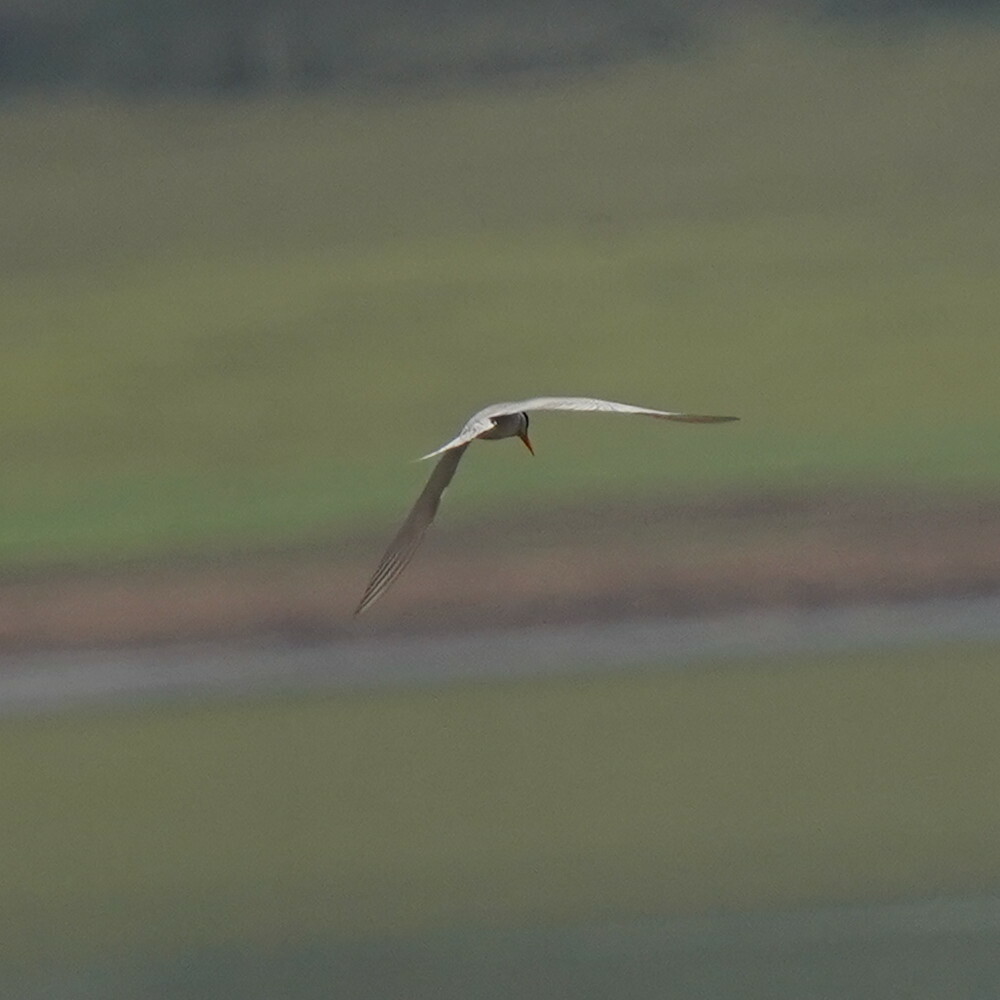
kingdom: Animalia
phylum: Chordata
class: Aves
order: Charadriiformes
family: Laridae
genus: Sterna
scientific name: Sterna aurantia
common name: River tern
